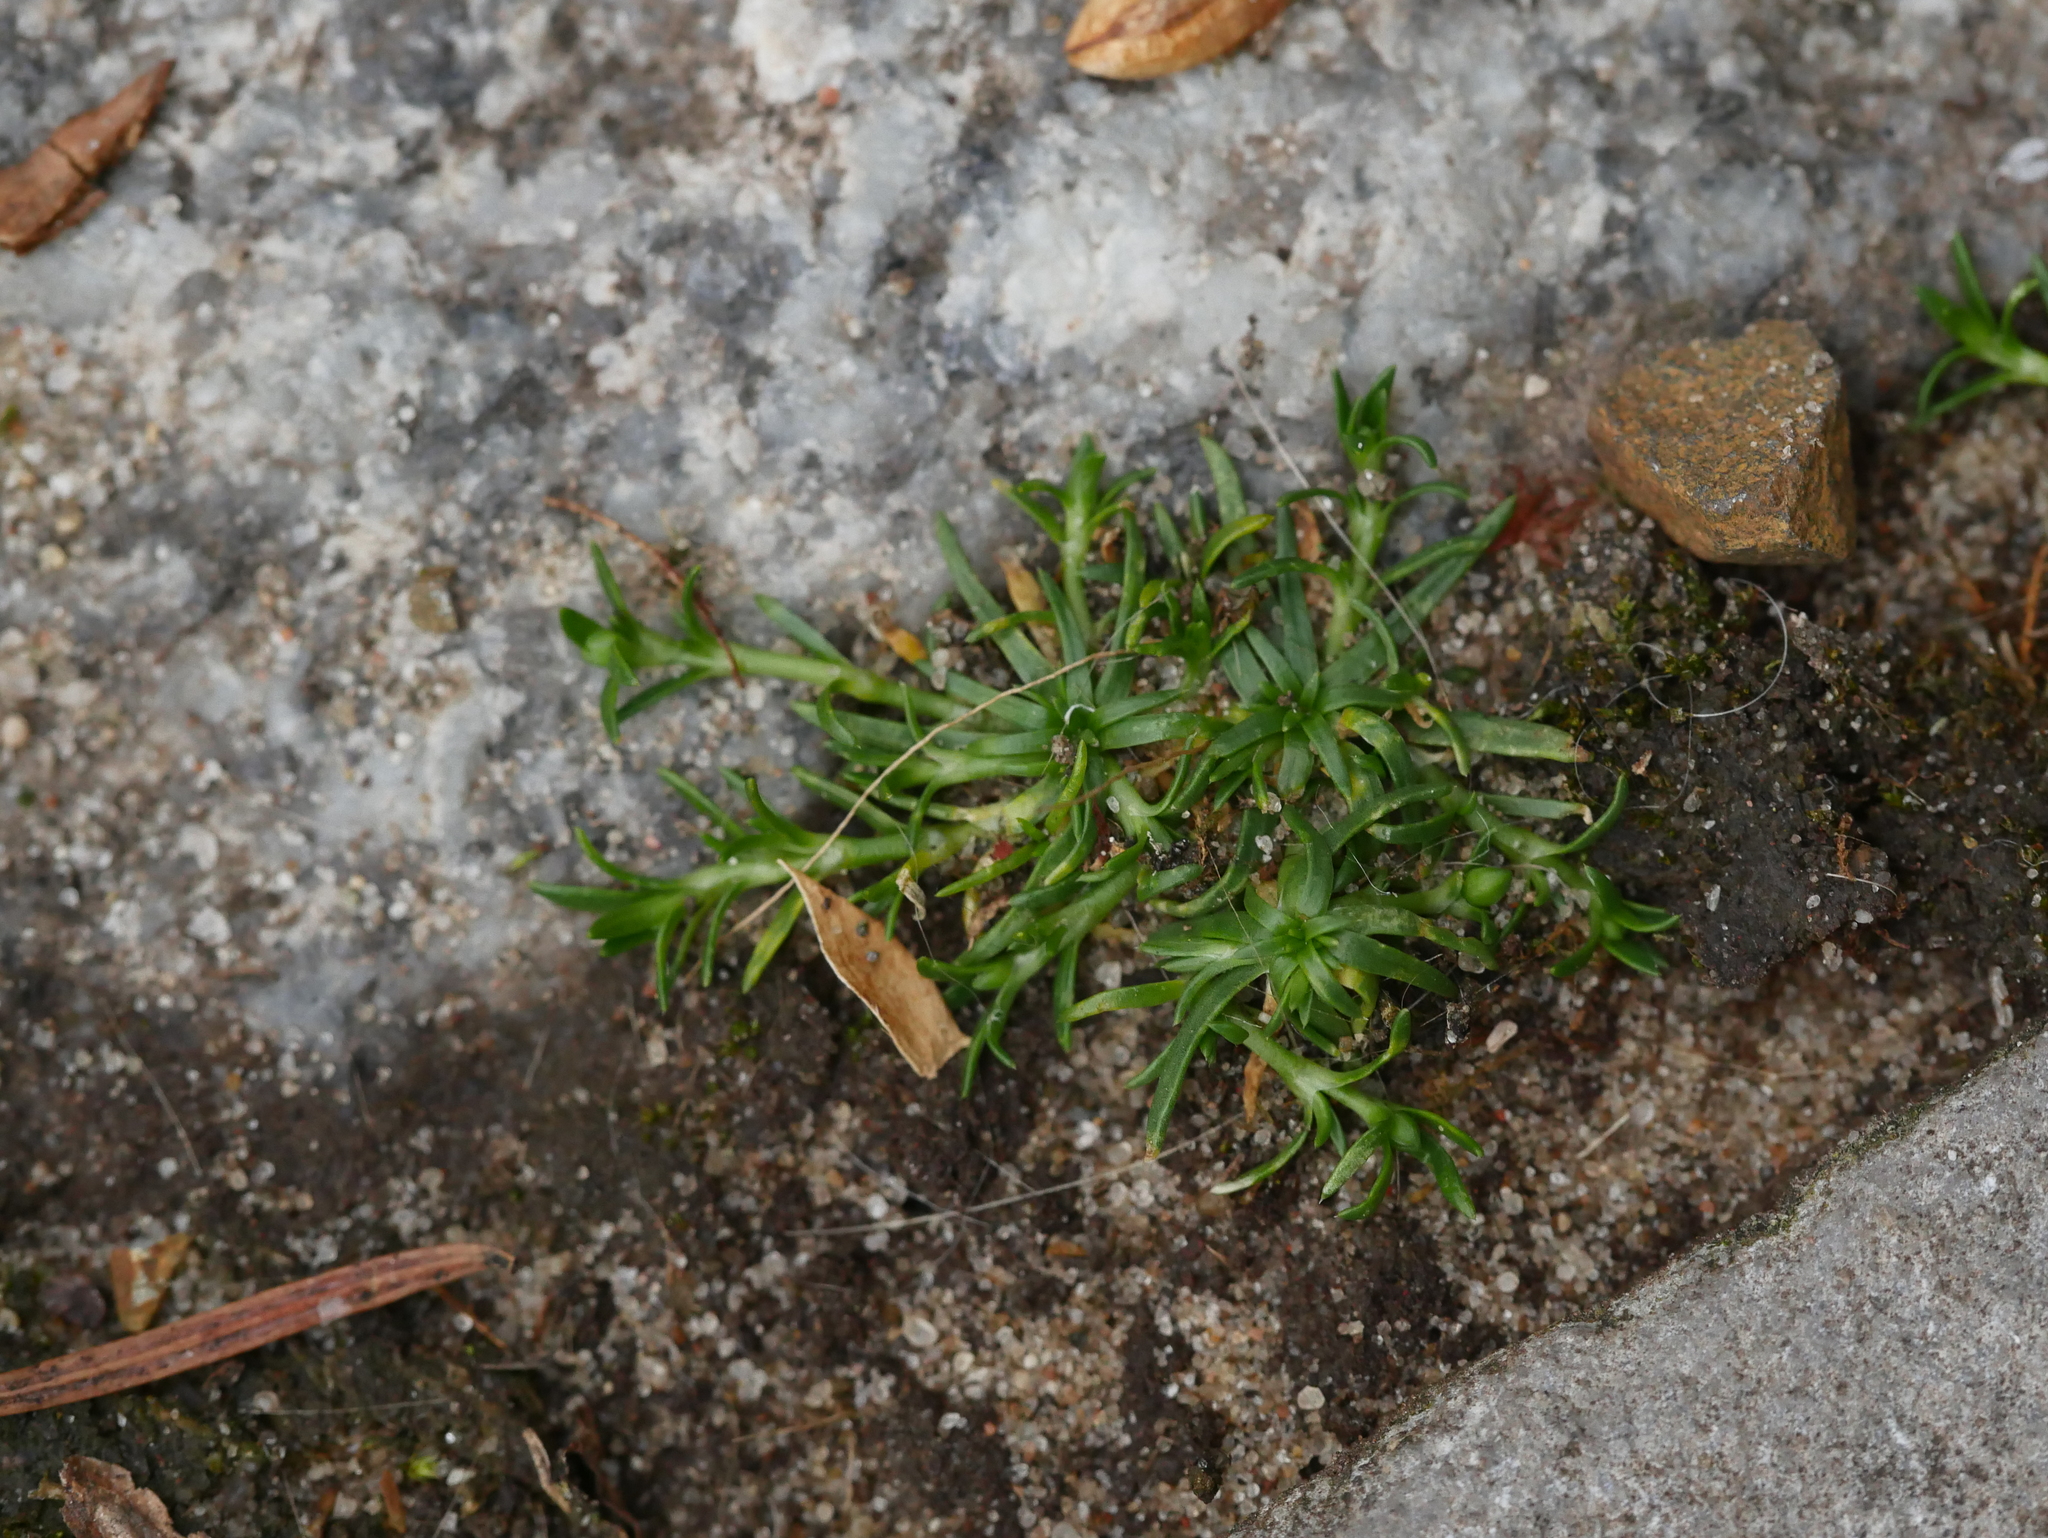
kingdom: Plantae
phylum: Tracheophyta
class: Magnoliopsida
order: Caryophyllales
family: Caryophyllaceae
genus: Sagina
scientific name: Sagina procumbens
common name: Procumbent pearlwort
